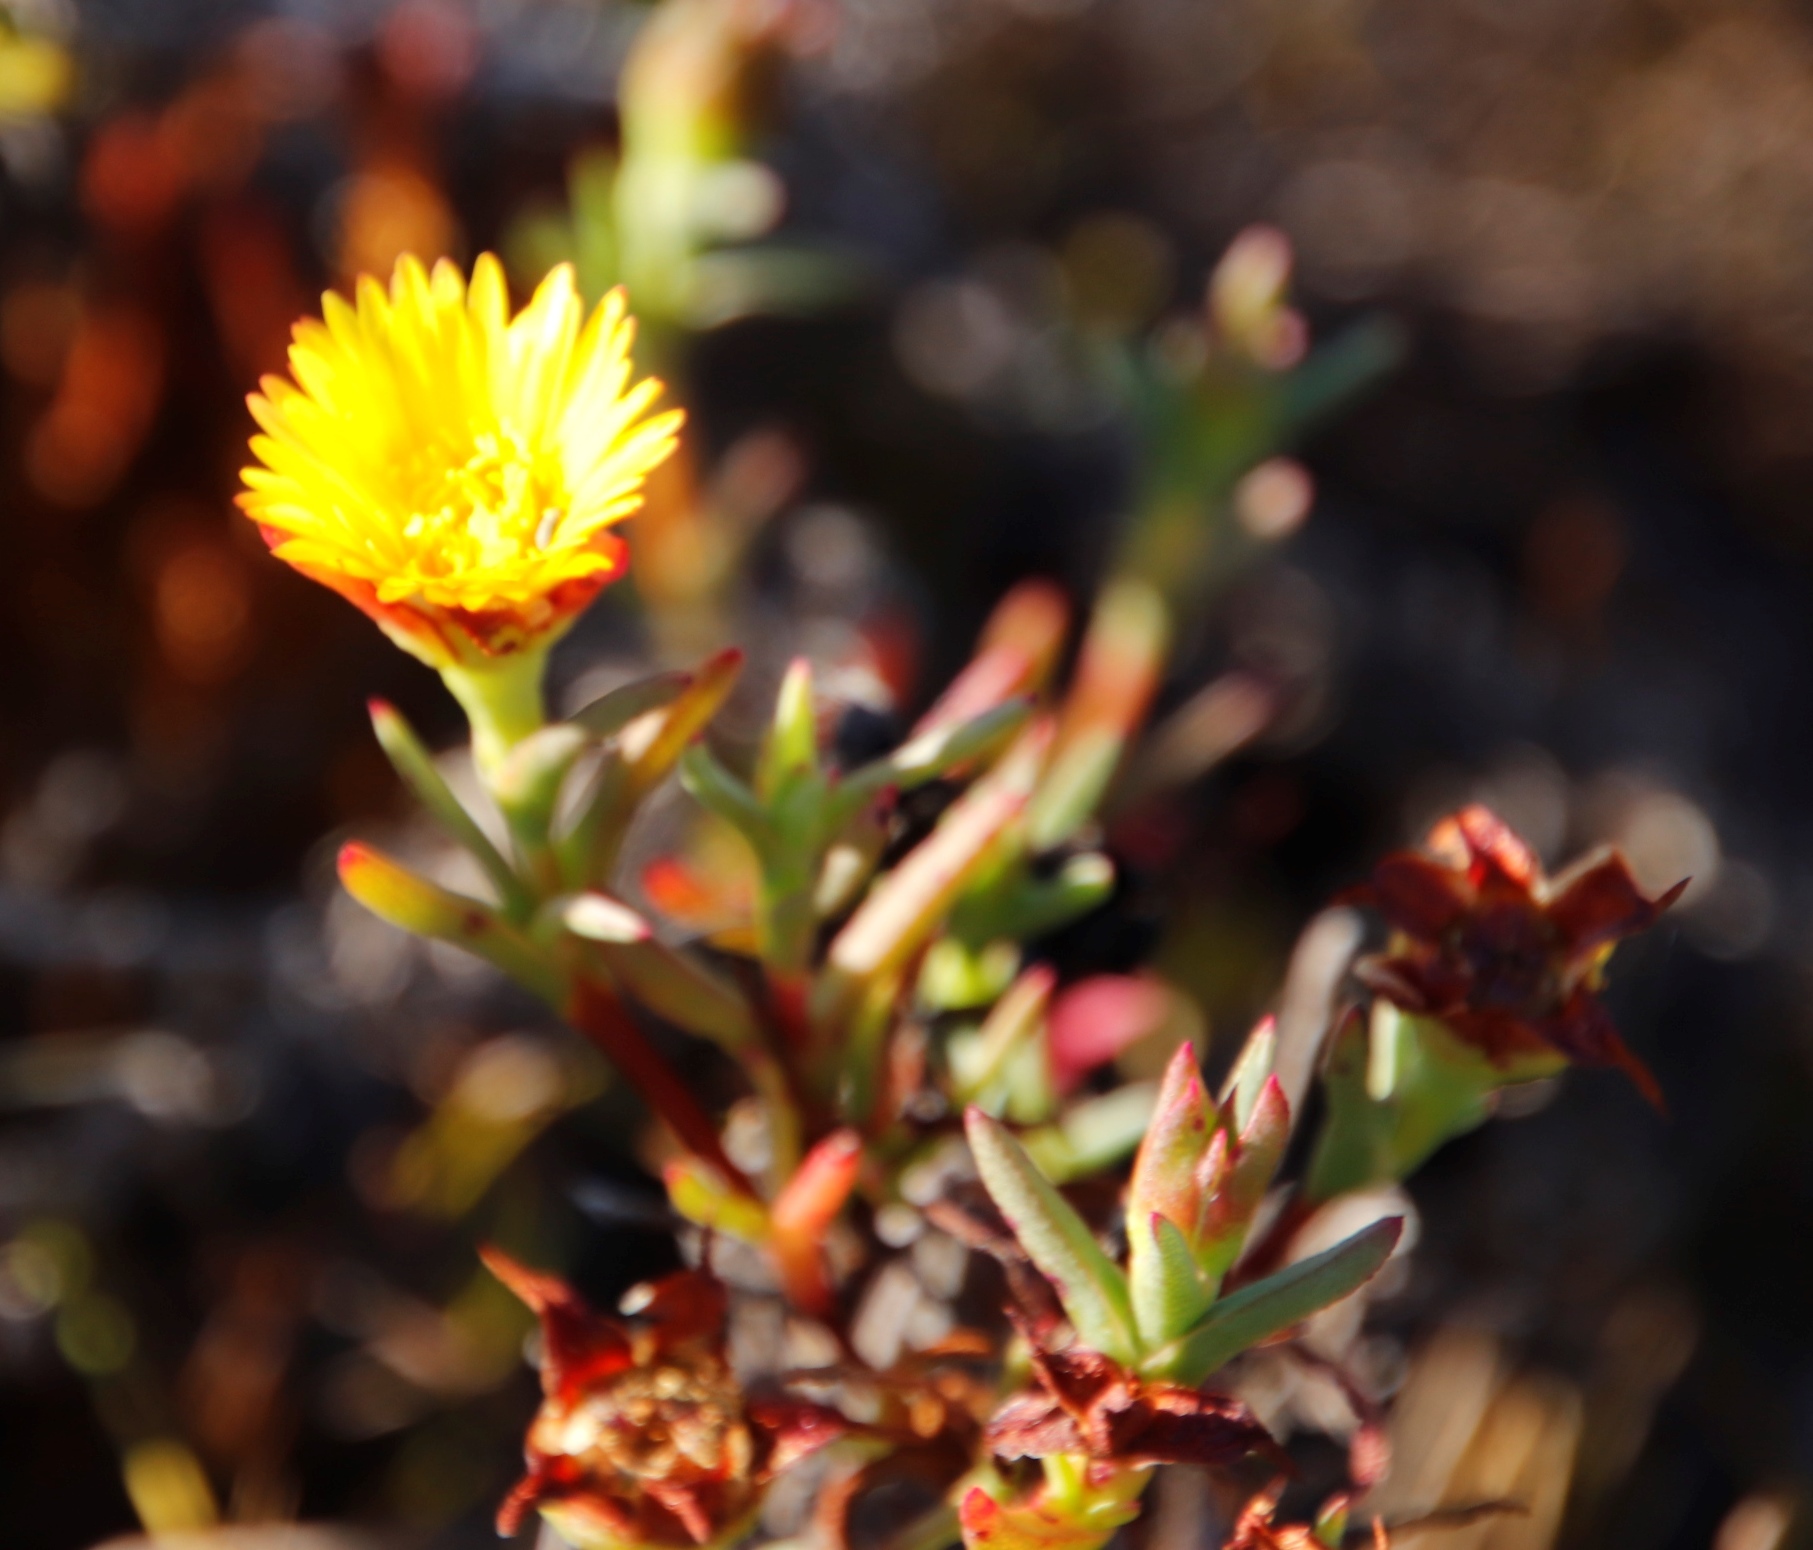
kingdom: Plantae
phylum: Tracheophyta
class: Magnoliopsida
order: Caryophyllales
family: Aizoaceae
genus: Lampranthus
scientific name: Lampranthus bicolor
